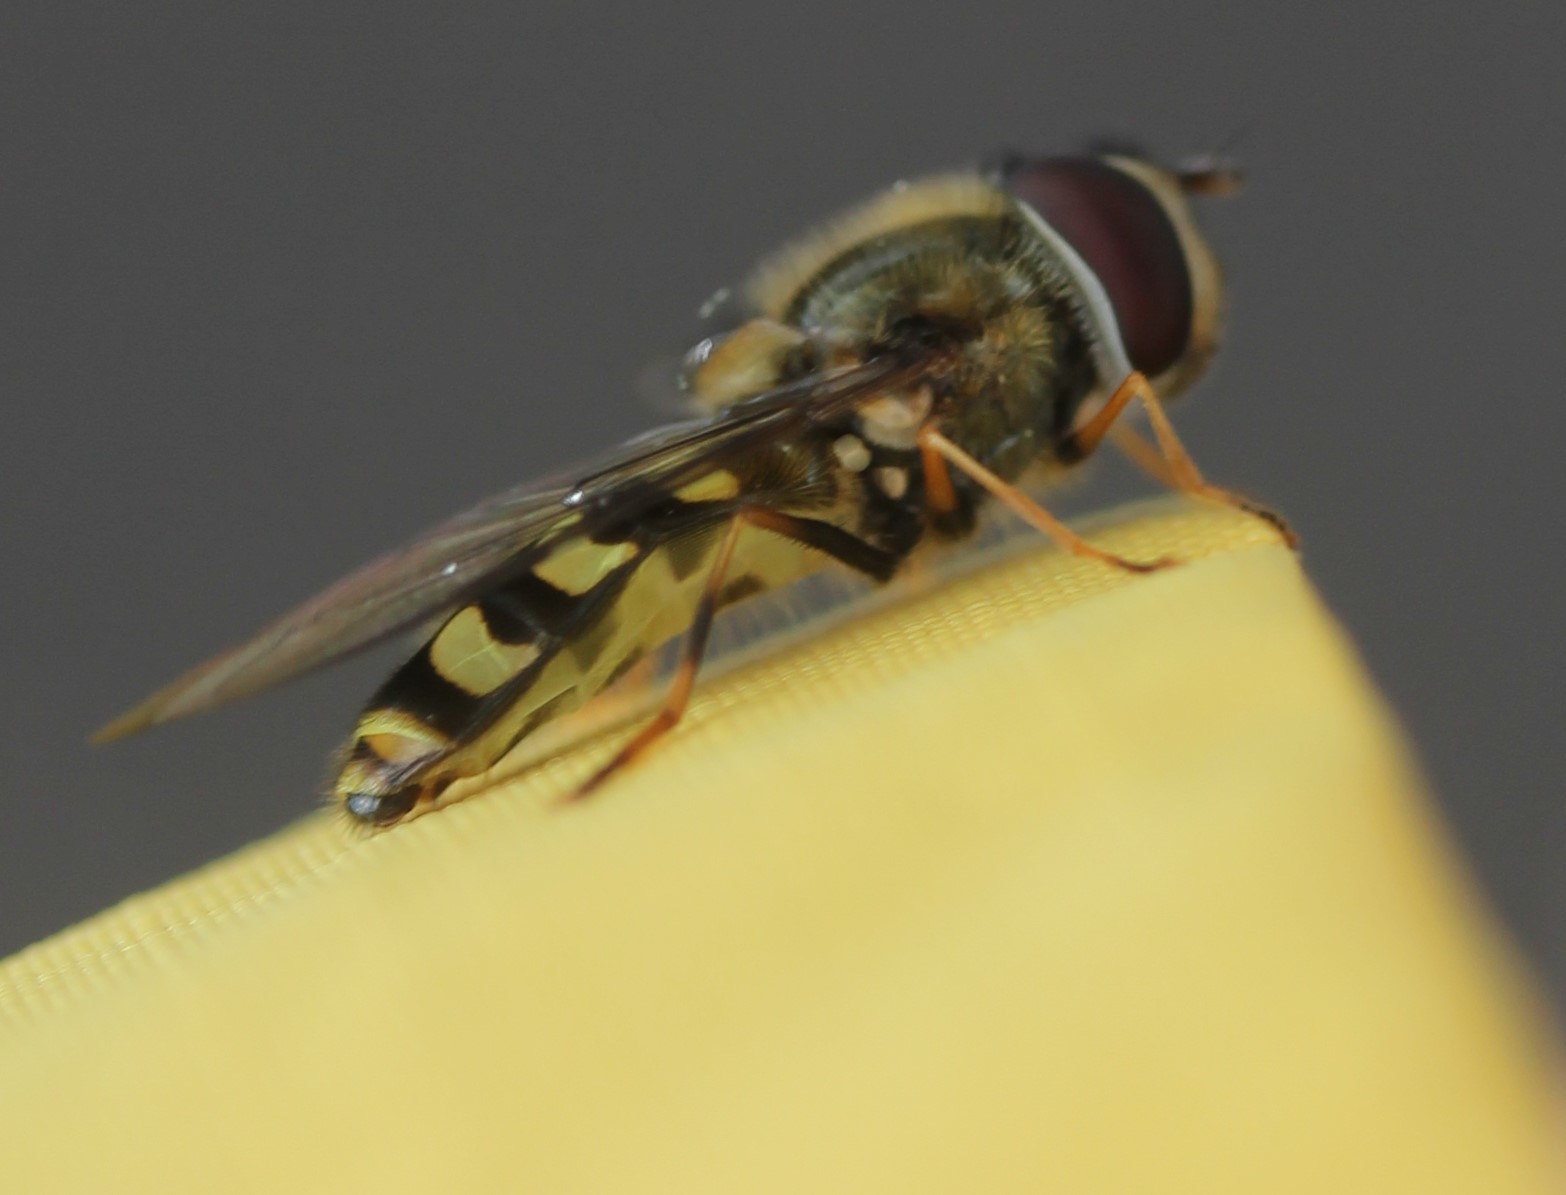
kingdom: Animalia
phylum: Arthropoda
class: Insecta
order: Diptera
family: Syrphidae
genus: Lapposyrphus
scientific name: Lapposyrphus lapponicus
